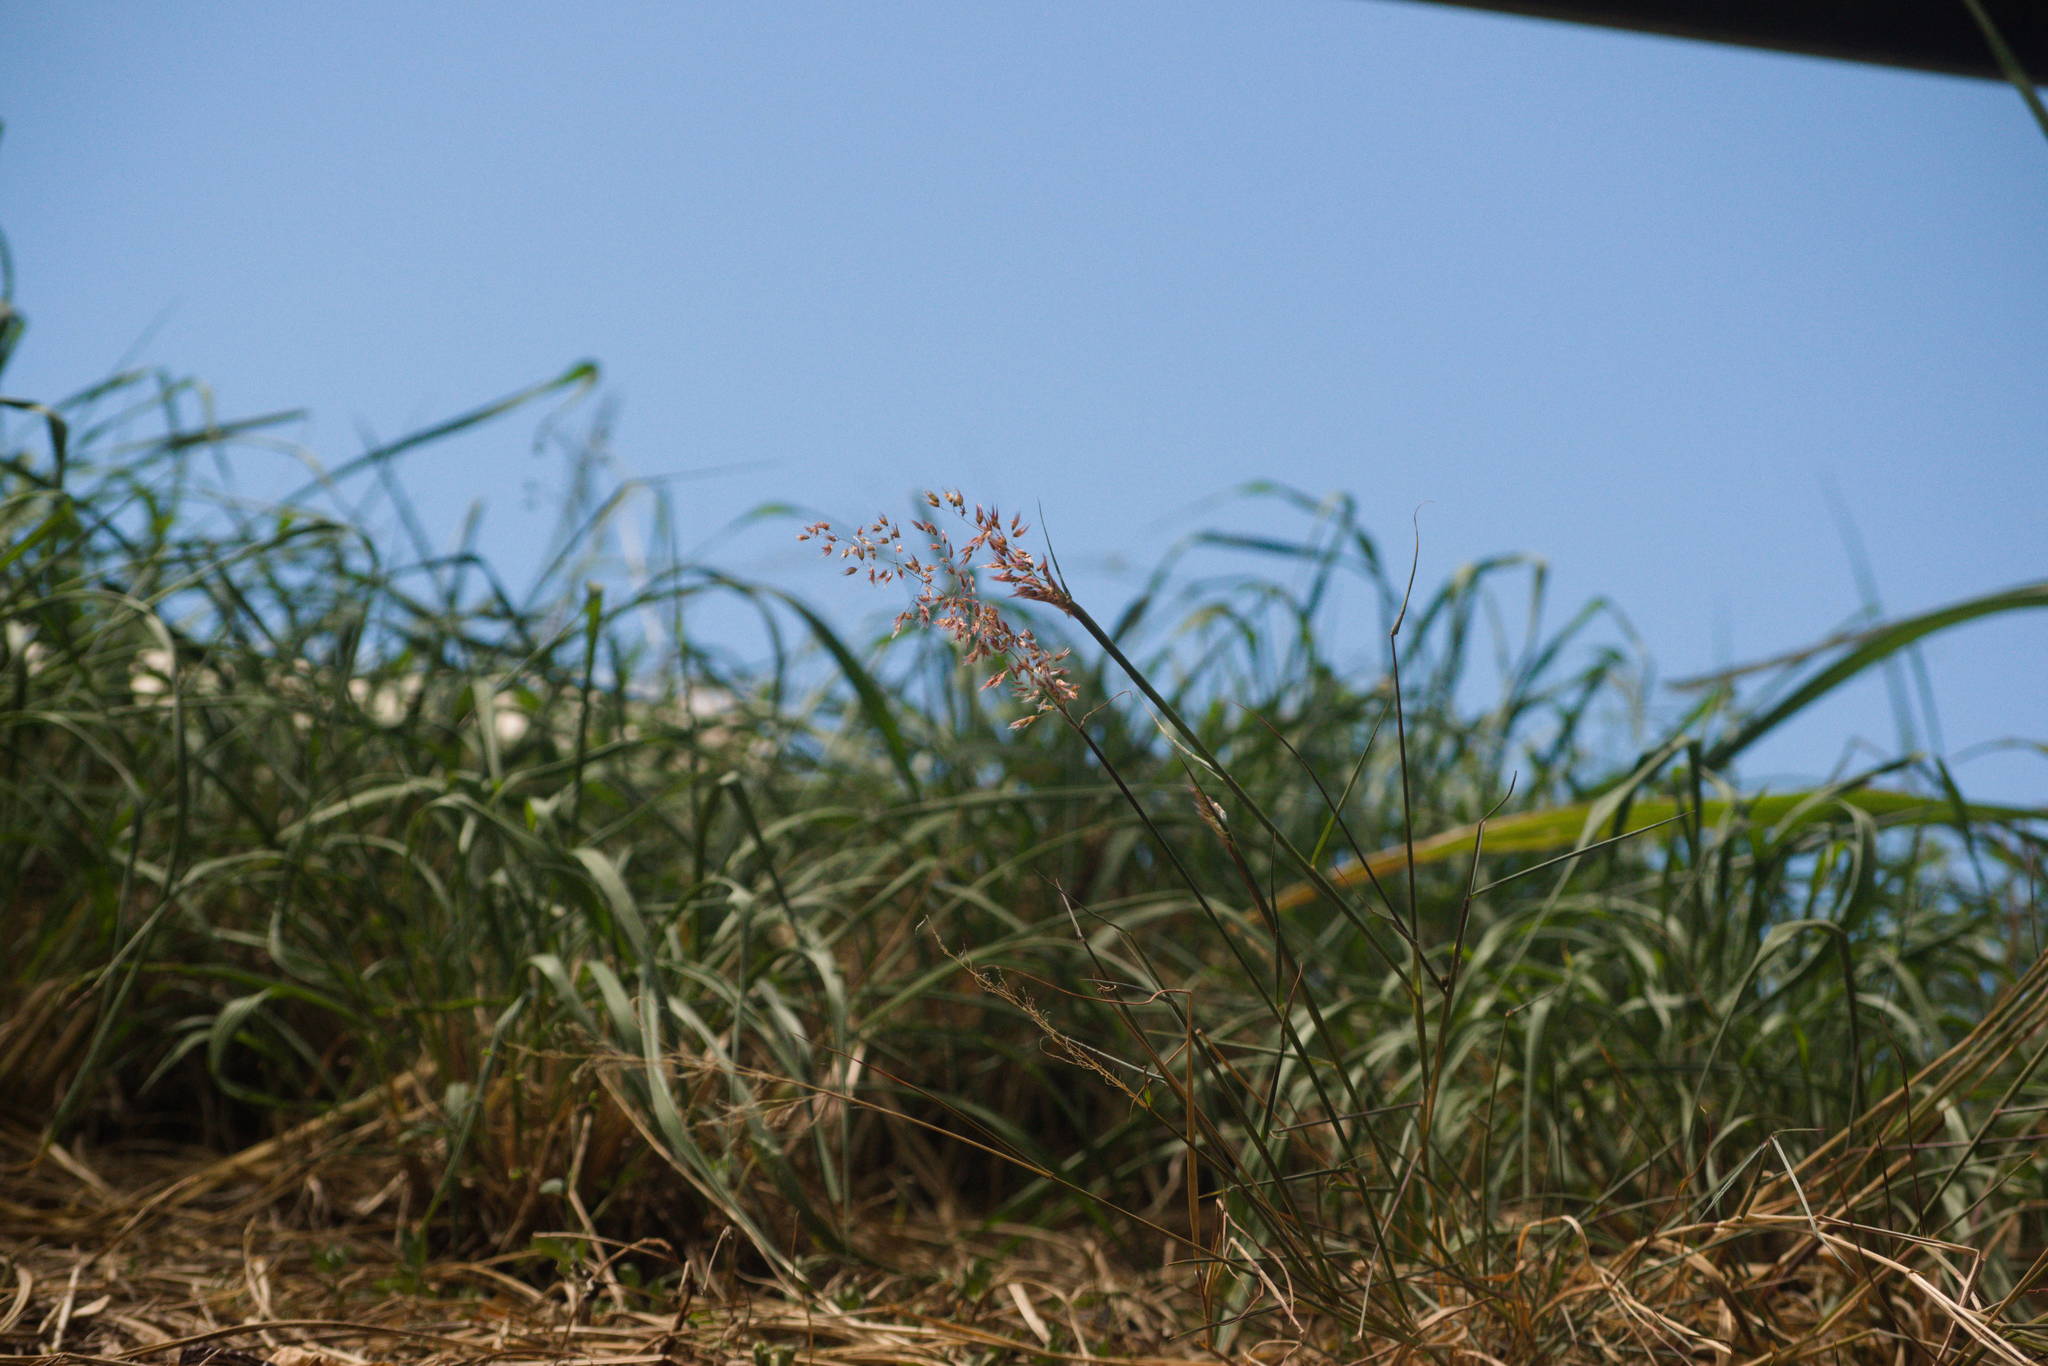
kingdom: Plantae
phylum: Tracheophyta
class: Liliopsida
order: Poales
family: Poaceae
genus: Melinis
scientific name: Melinis repens
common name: Rose natal grass
